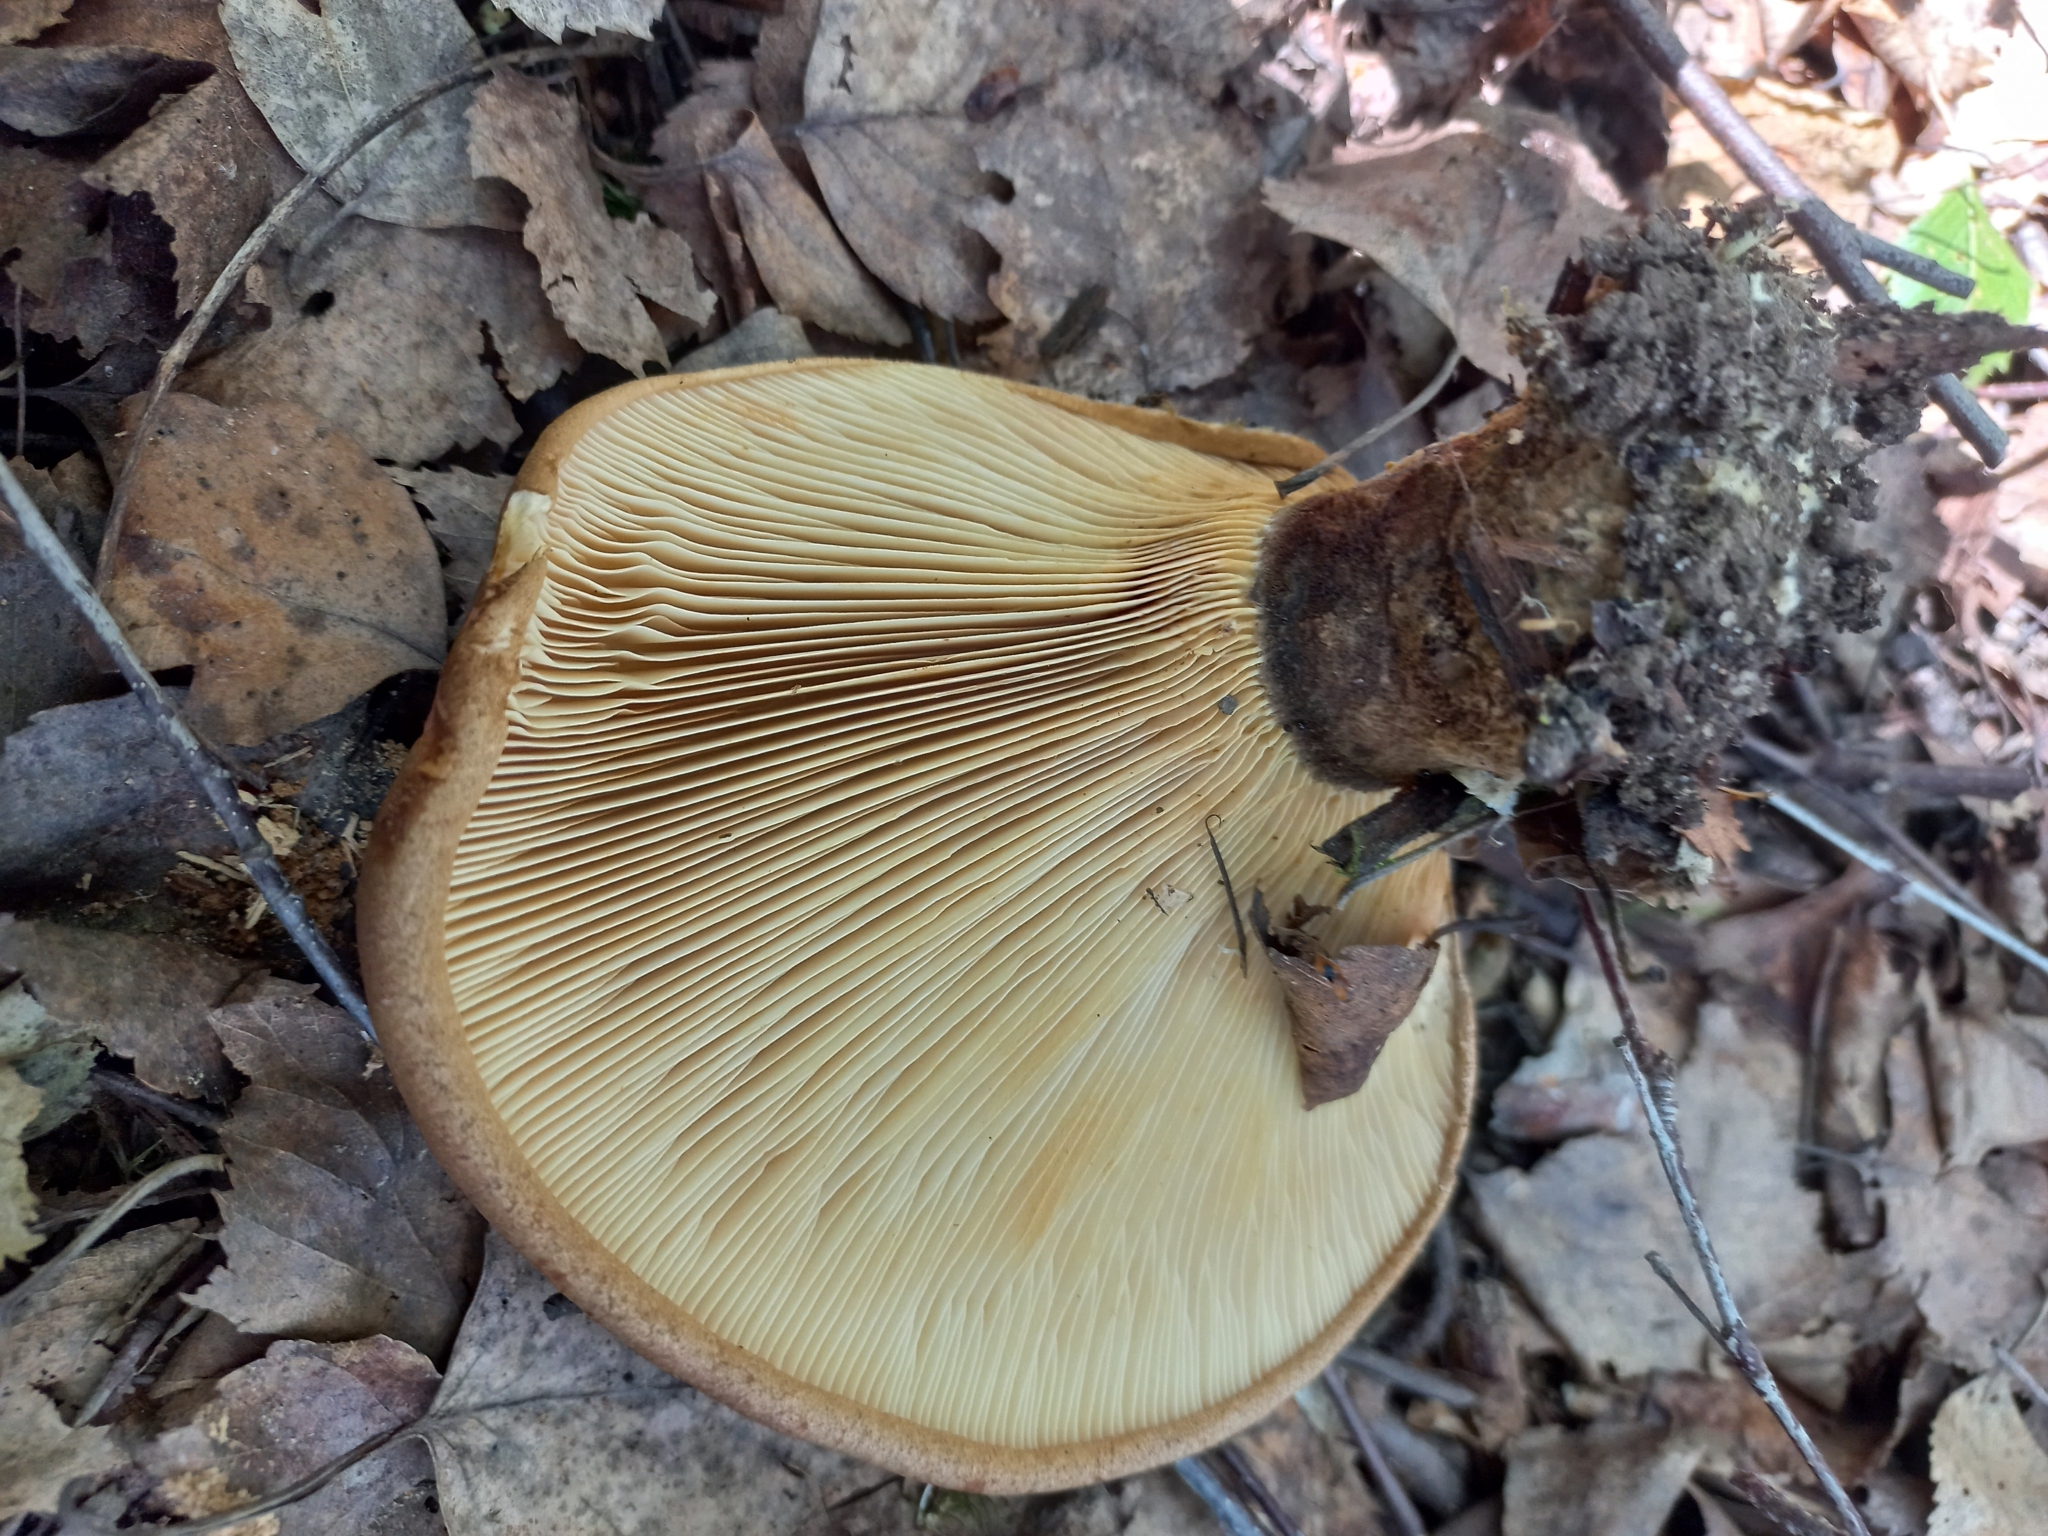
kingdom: Fungi
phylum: Basidiomycota
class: Agaricomycetes
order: Boletales
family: Tapinellaceae
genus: Tapinella
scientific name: Tapinella atrotomentosa
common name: Velvet rollrim
